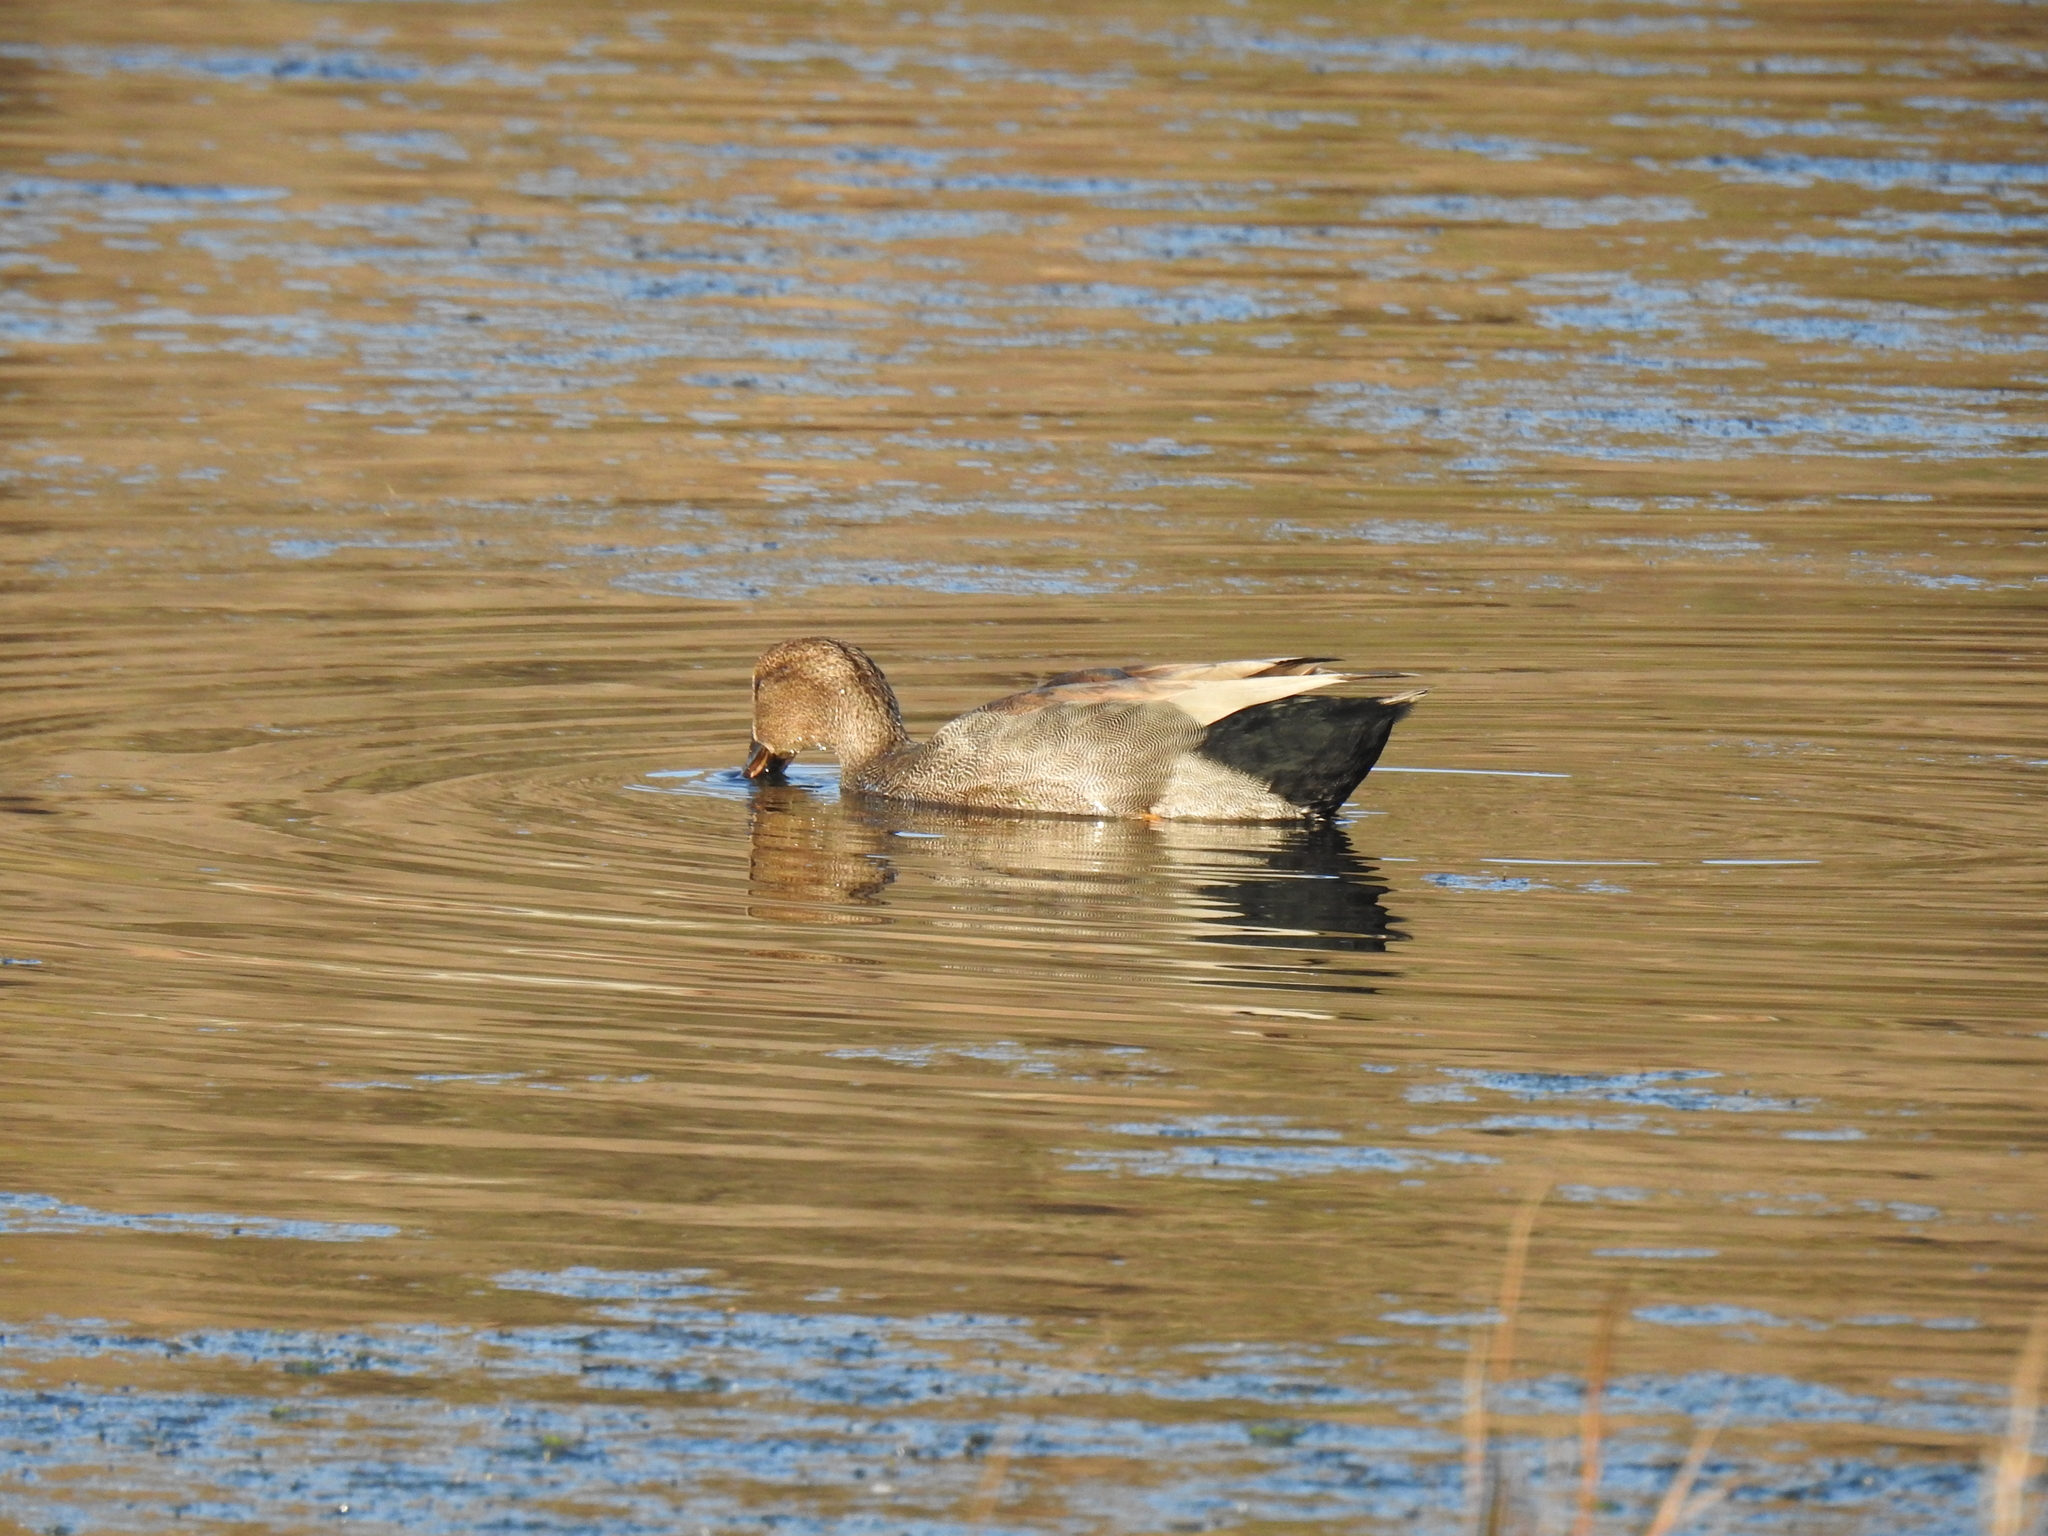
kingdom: Animalia
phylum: Chordata
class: Aves
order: Anseriformes
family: Anatidae
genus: Mareca
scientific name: Mareca strepera
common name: Gadwall
